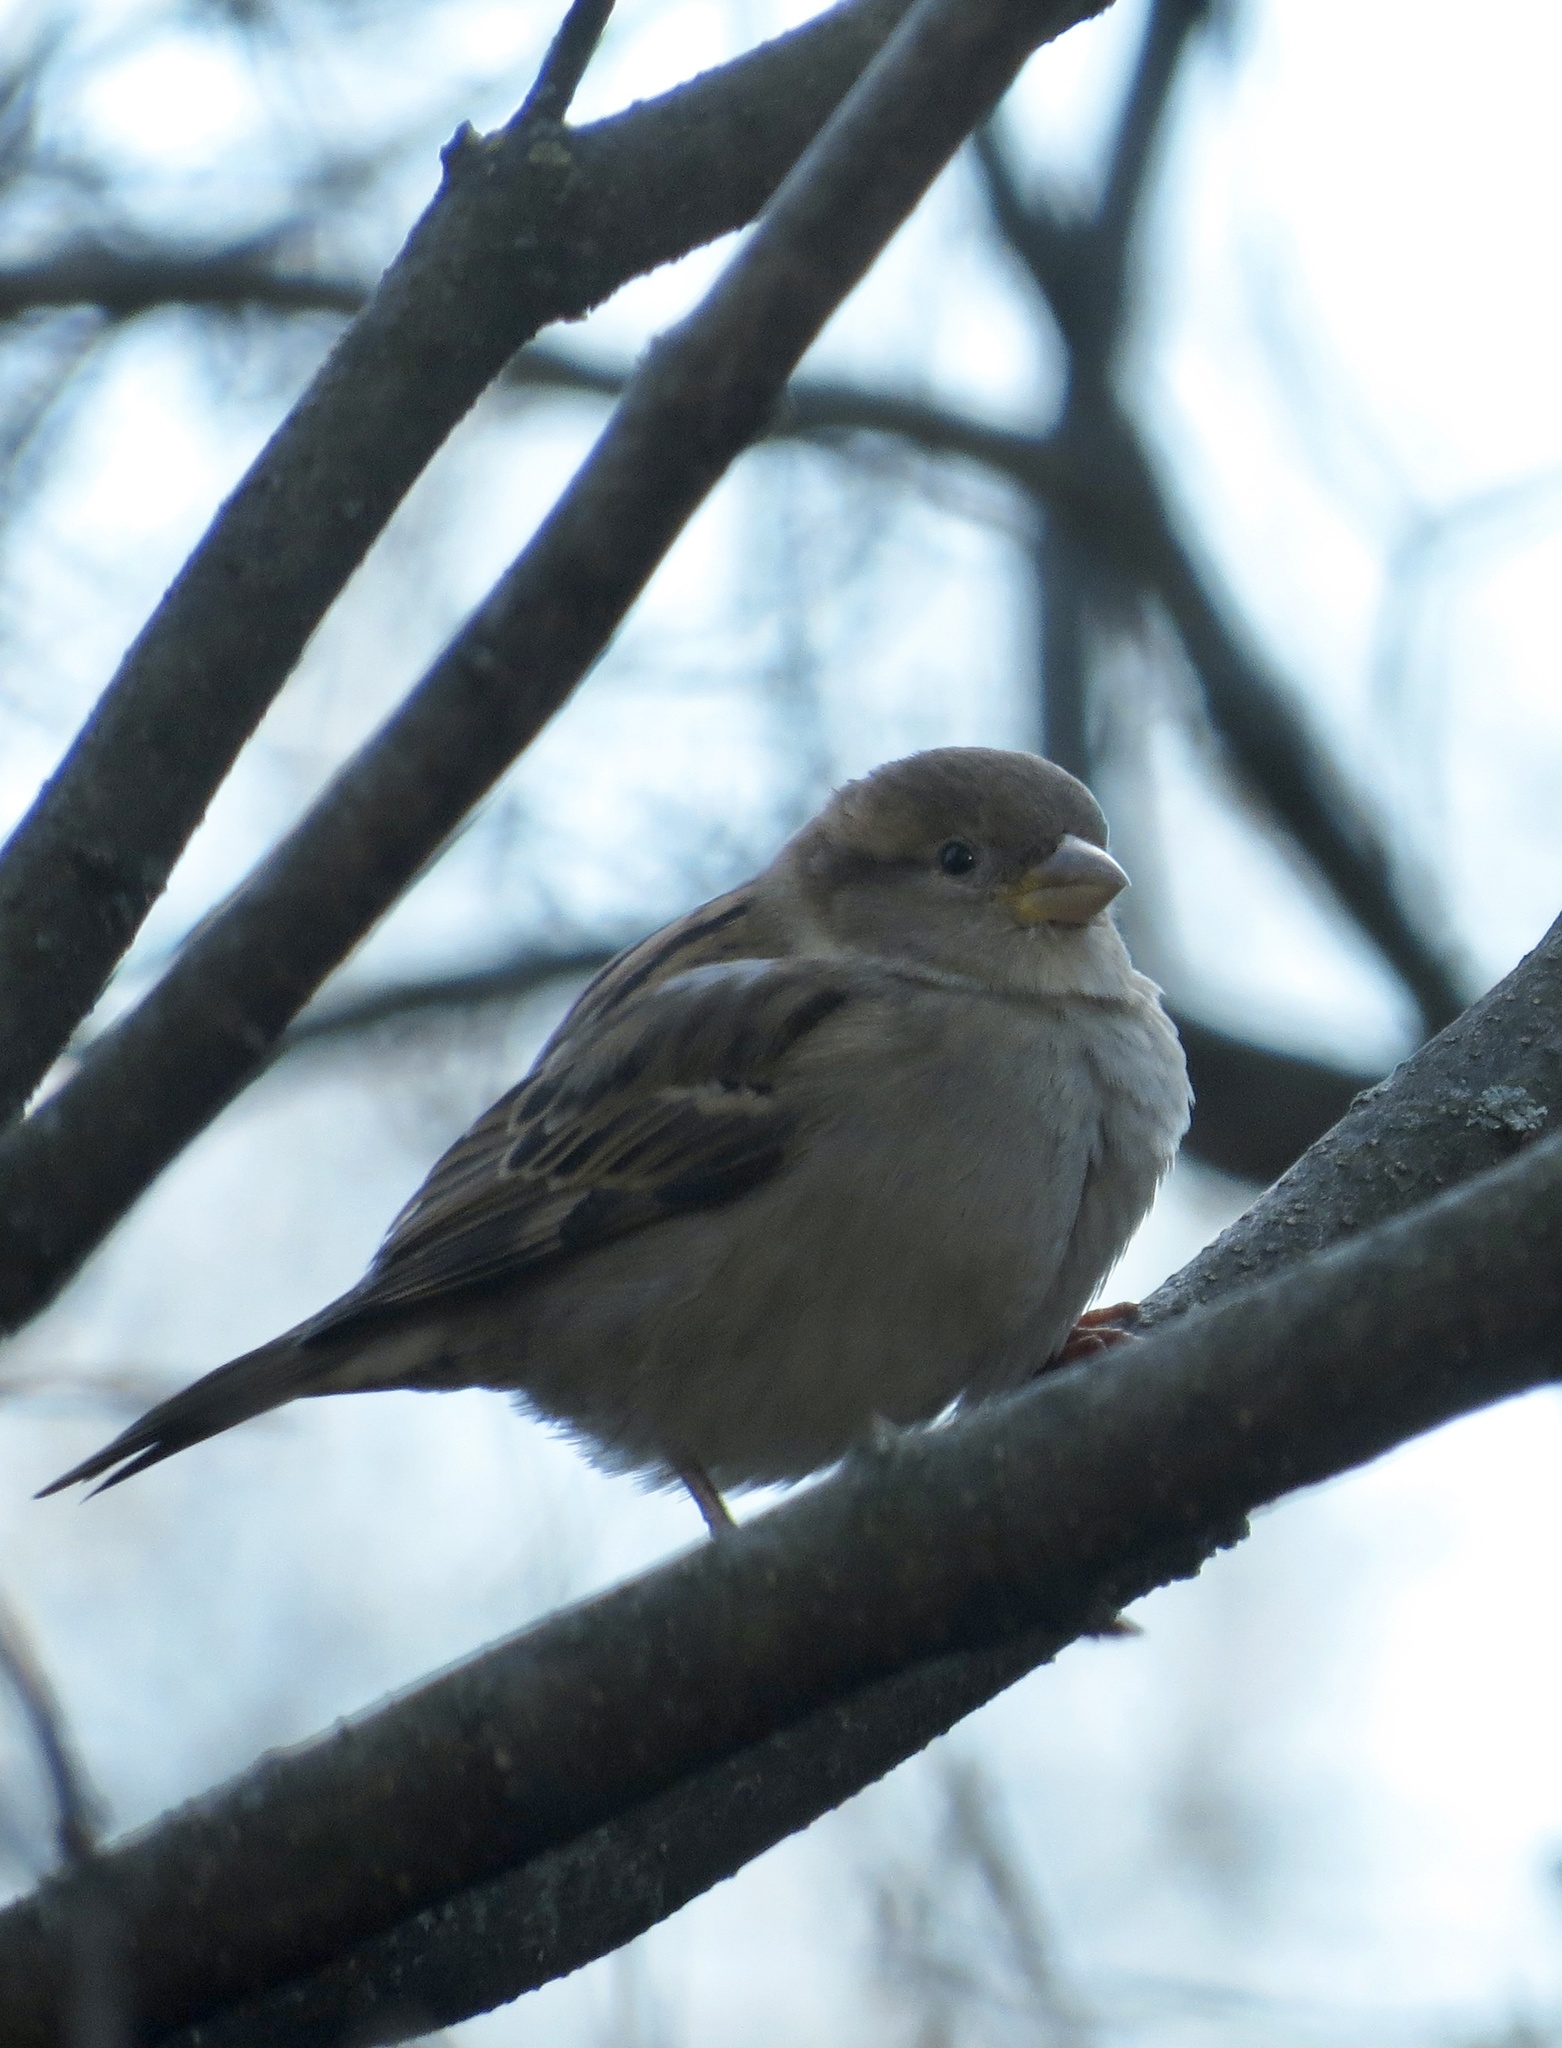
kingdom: Animalia
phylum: Chordata
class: Aves
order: Passeriformes
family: Passeridae
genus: Passer
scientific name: Passer domesticus
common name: House sparrow
